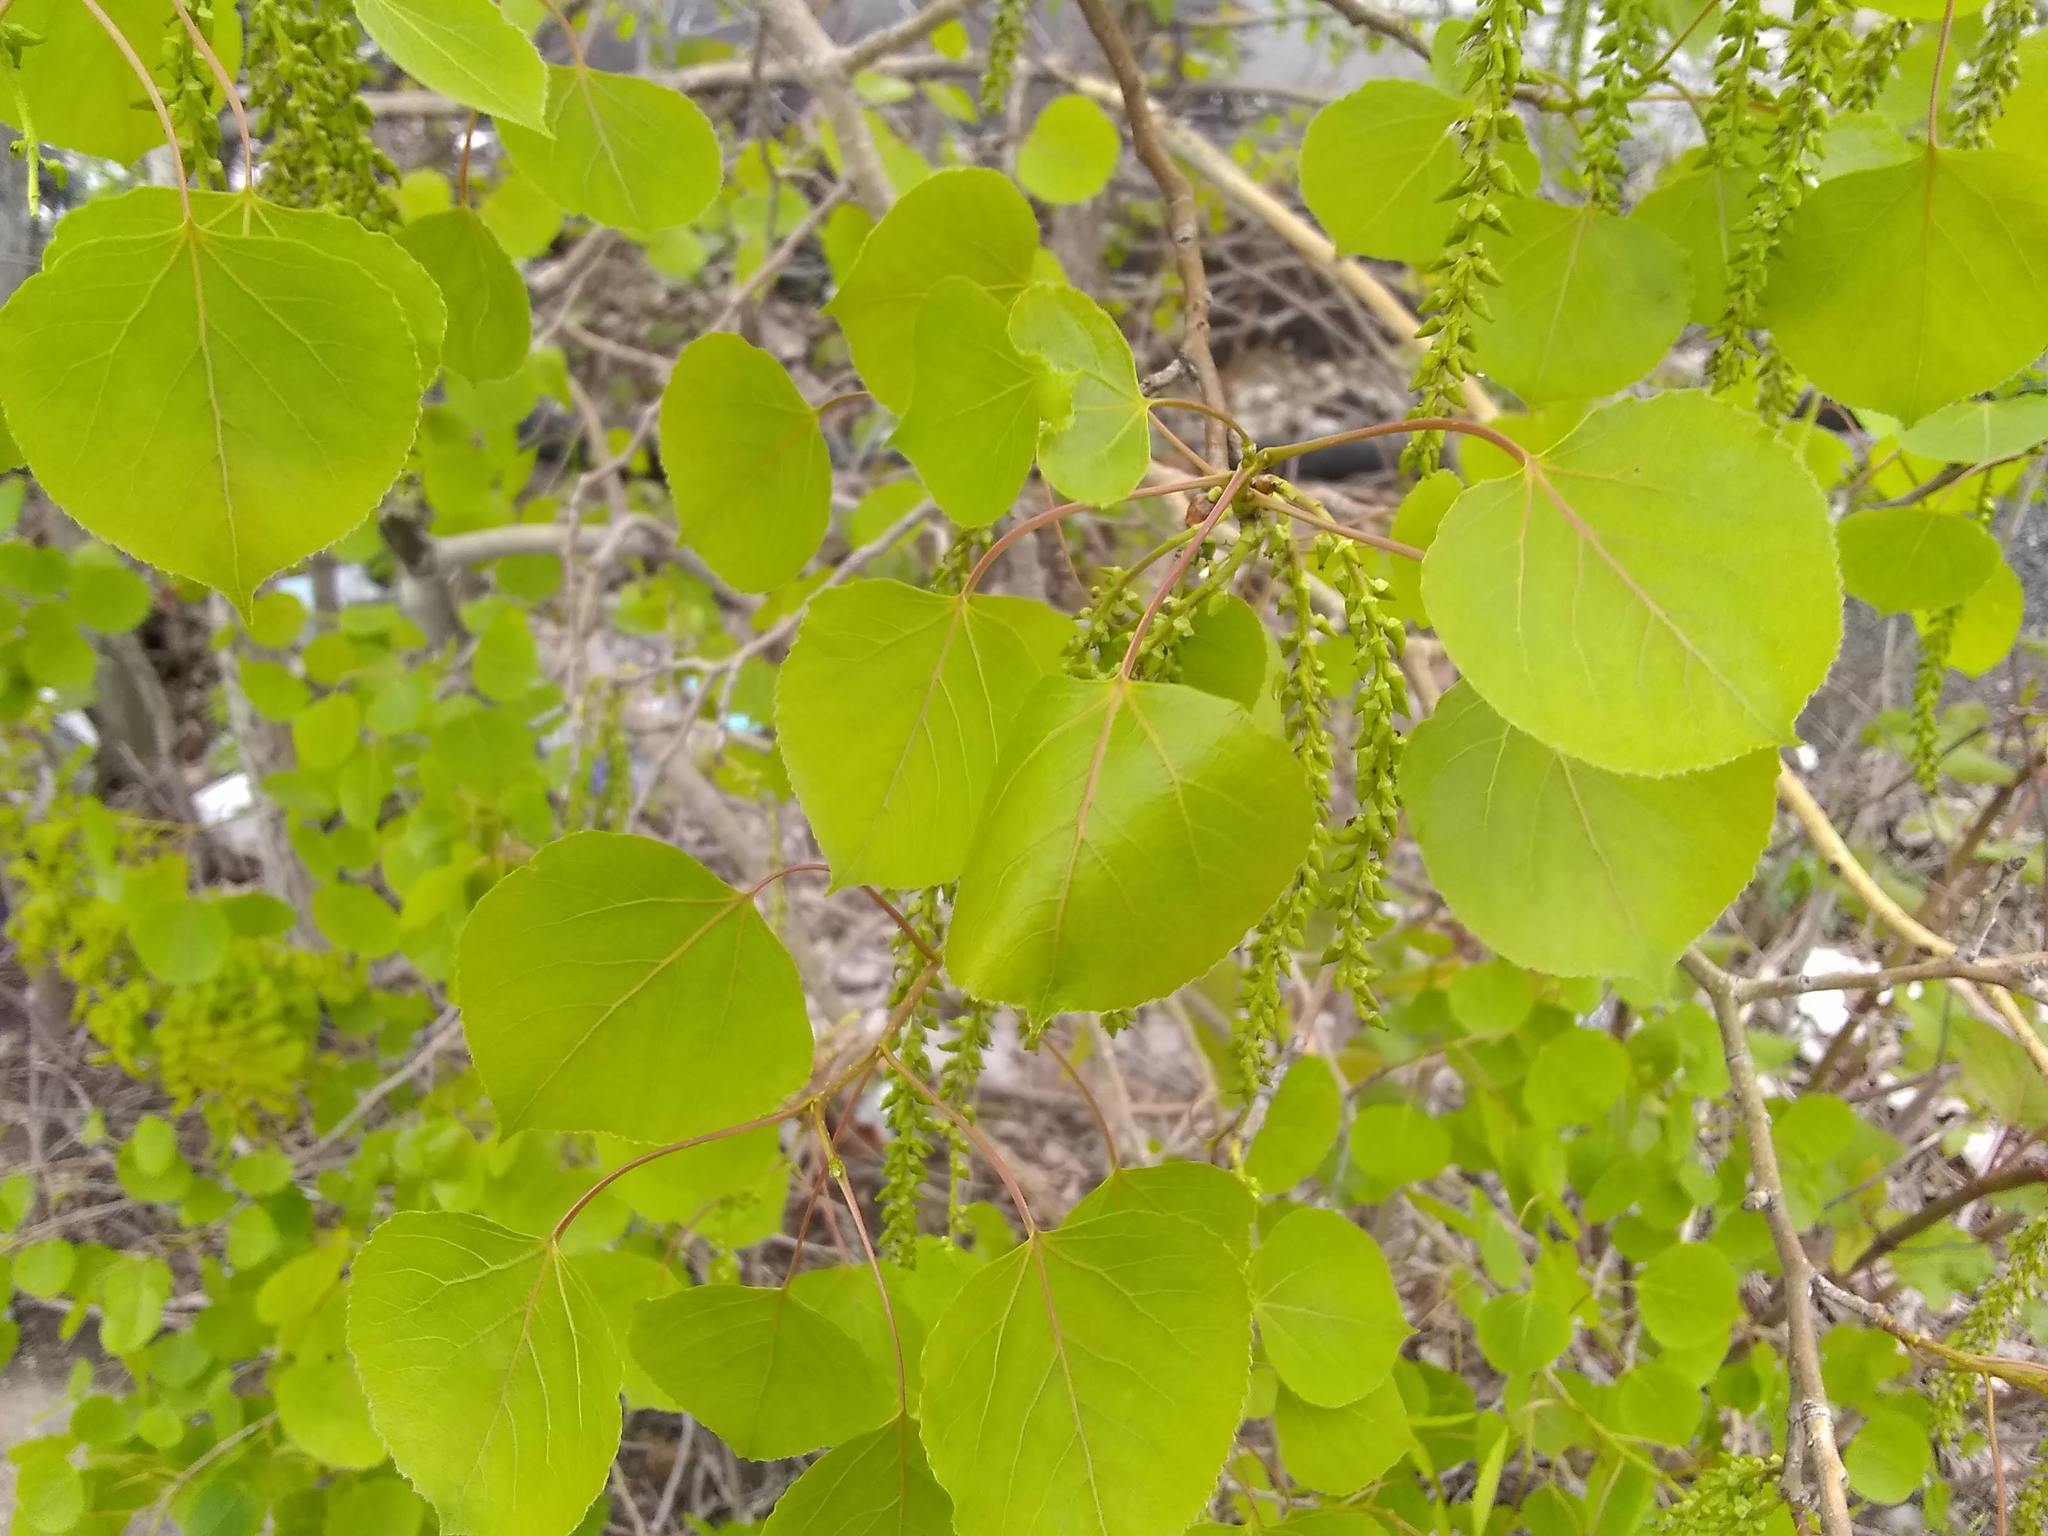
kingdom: Plantae
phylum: Tracheophyta
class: Magnoliopsida
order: Malpighiales
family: Salicaceae
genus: Populus
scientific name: Populus tremuloides
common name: Quaking aspen
